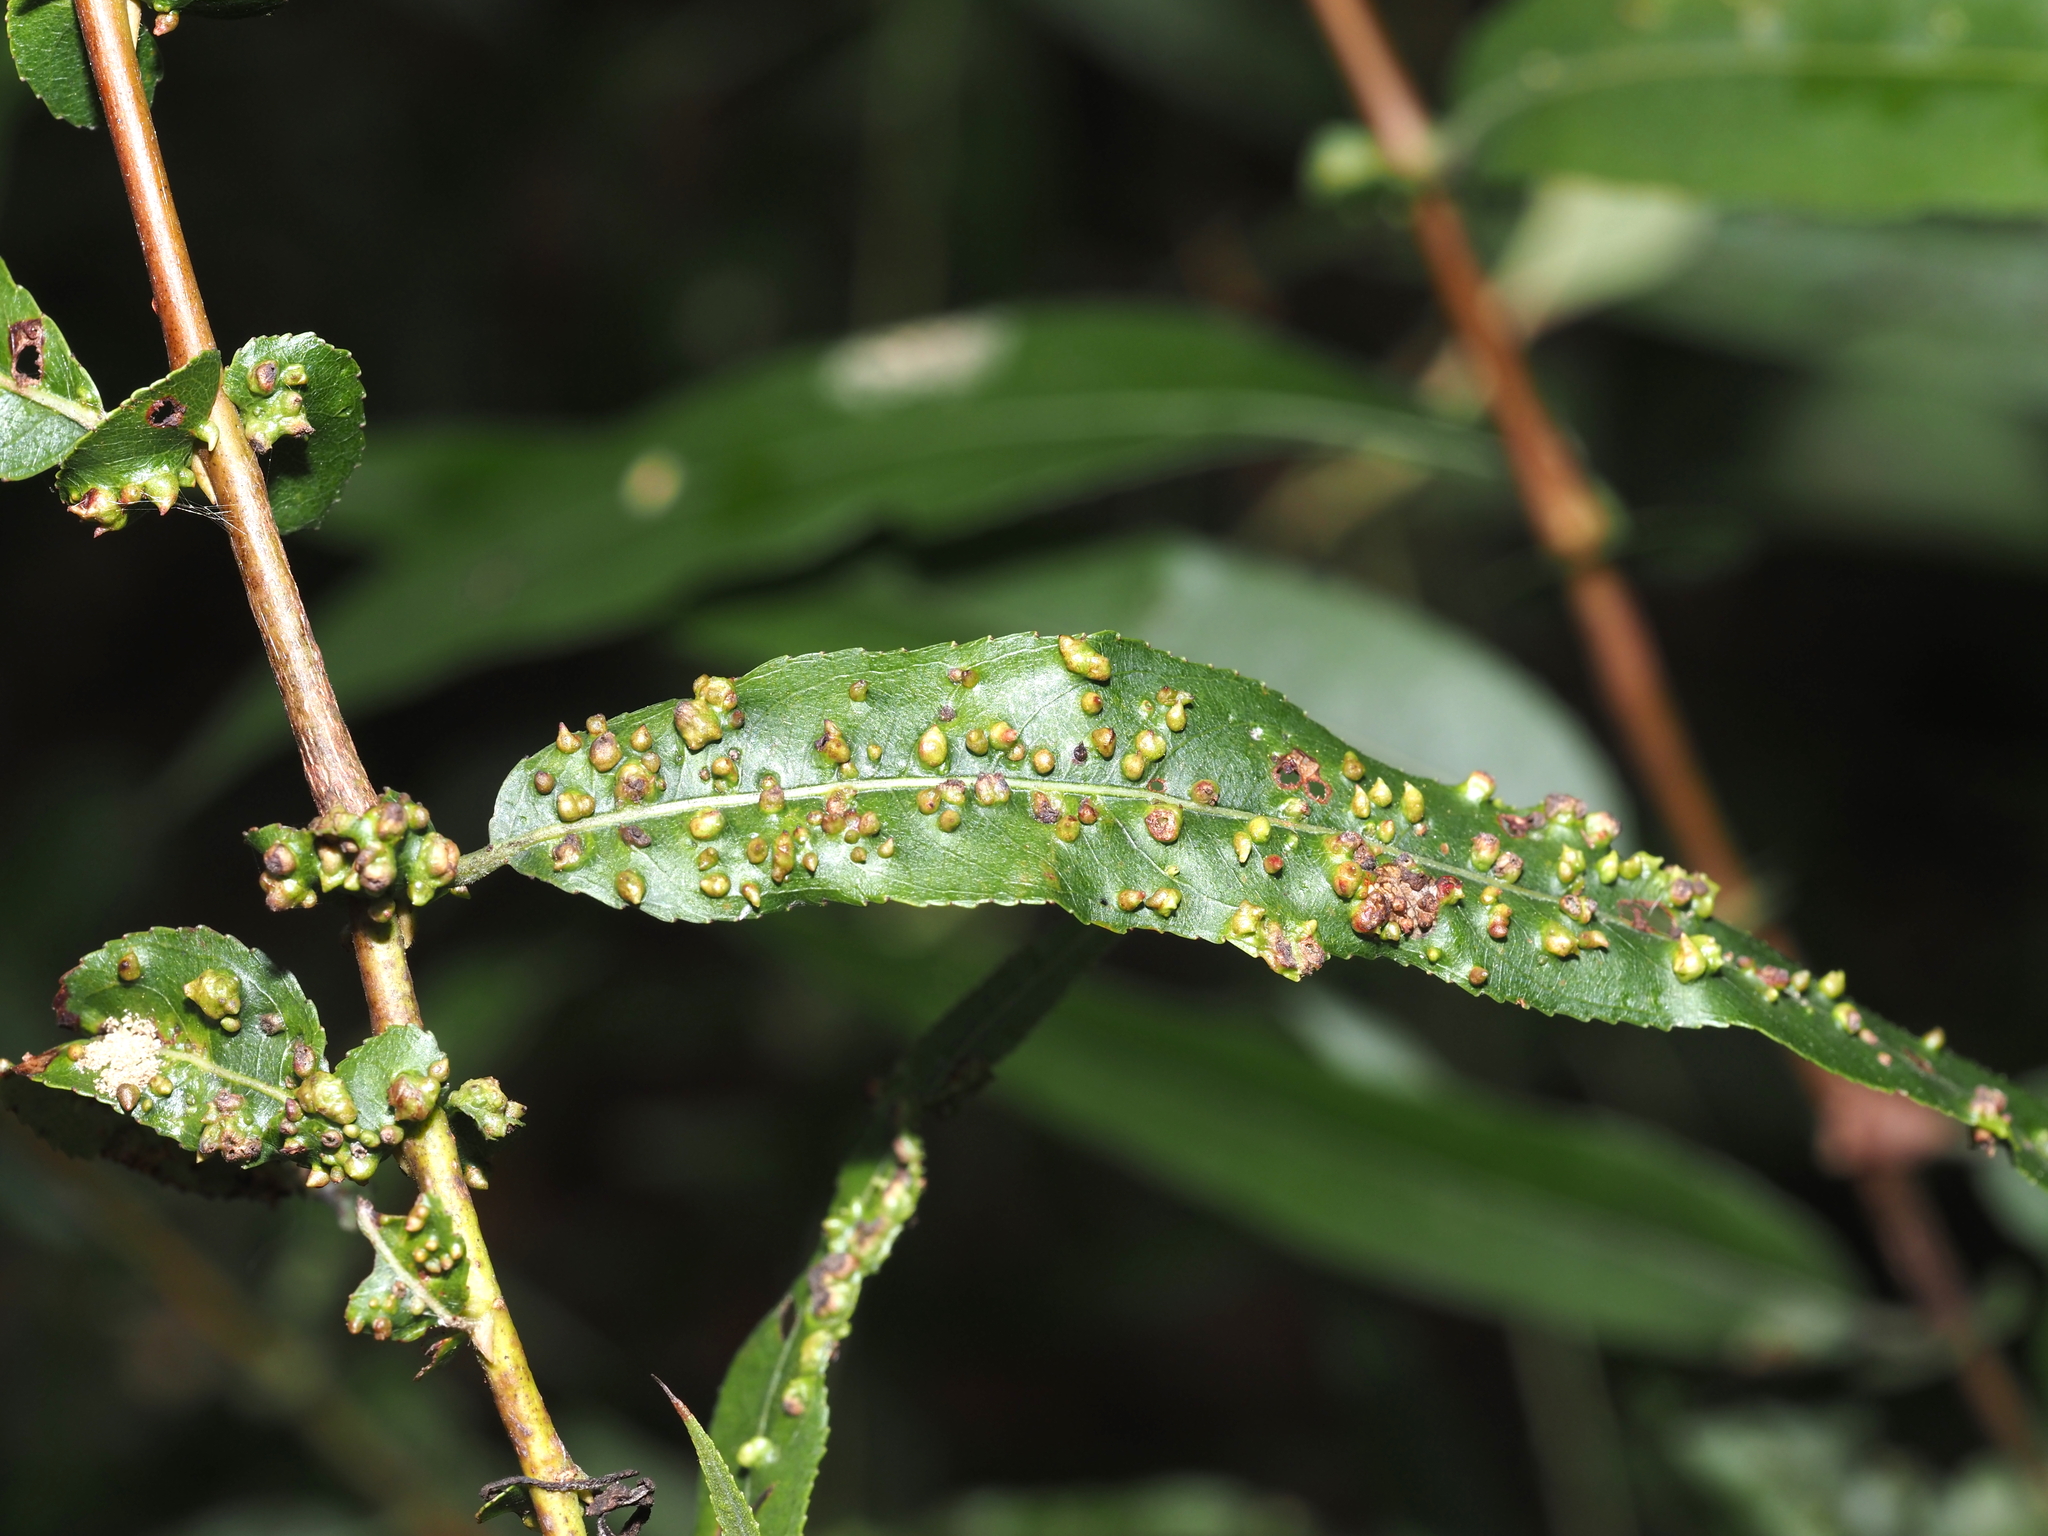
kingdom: Animalia
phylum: Arthropoda
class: Arachnida
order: Trombidiformes
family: Eriophyidae
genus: Aculus
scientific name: Aculus tetanothrix
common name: Willow bead gall mite
